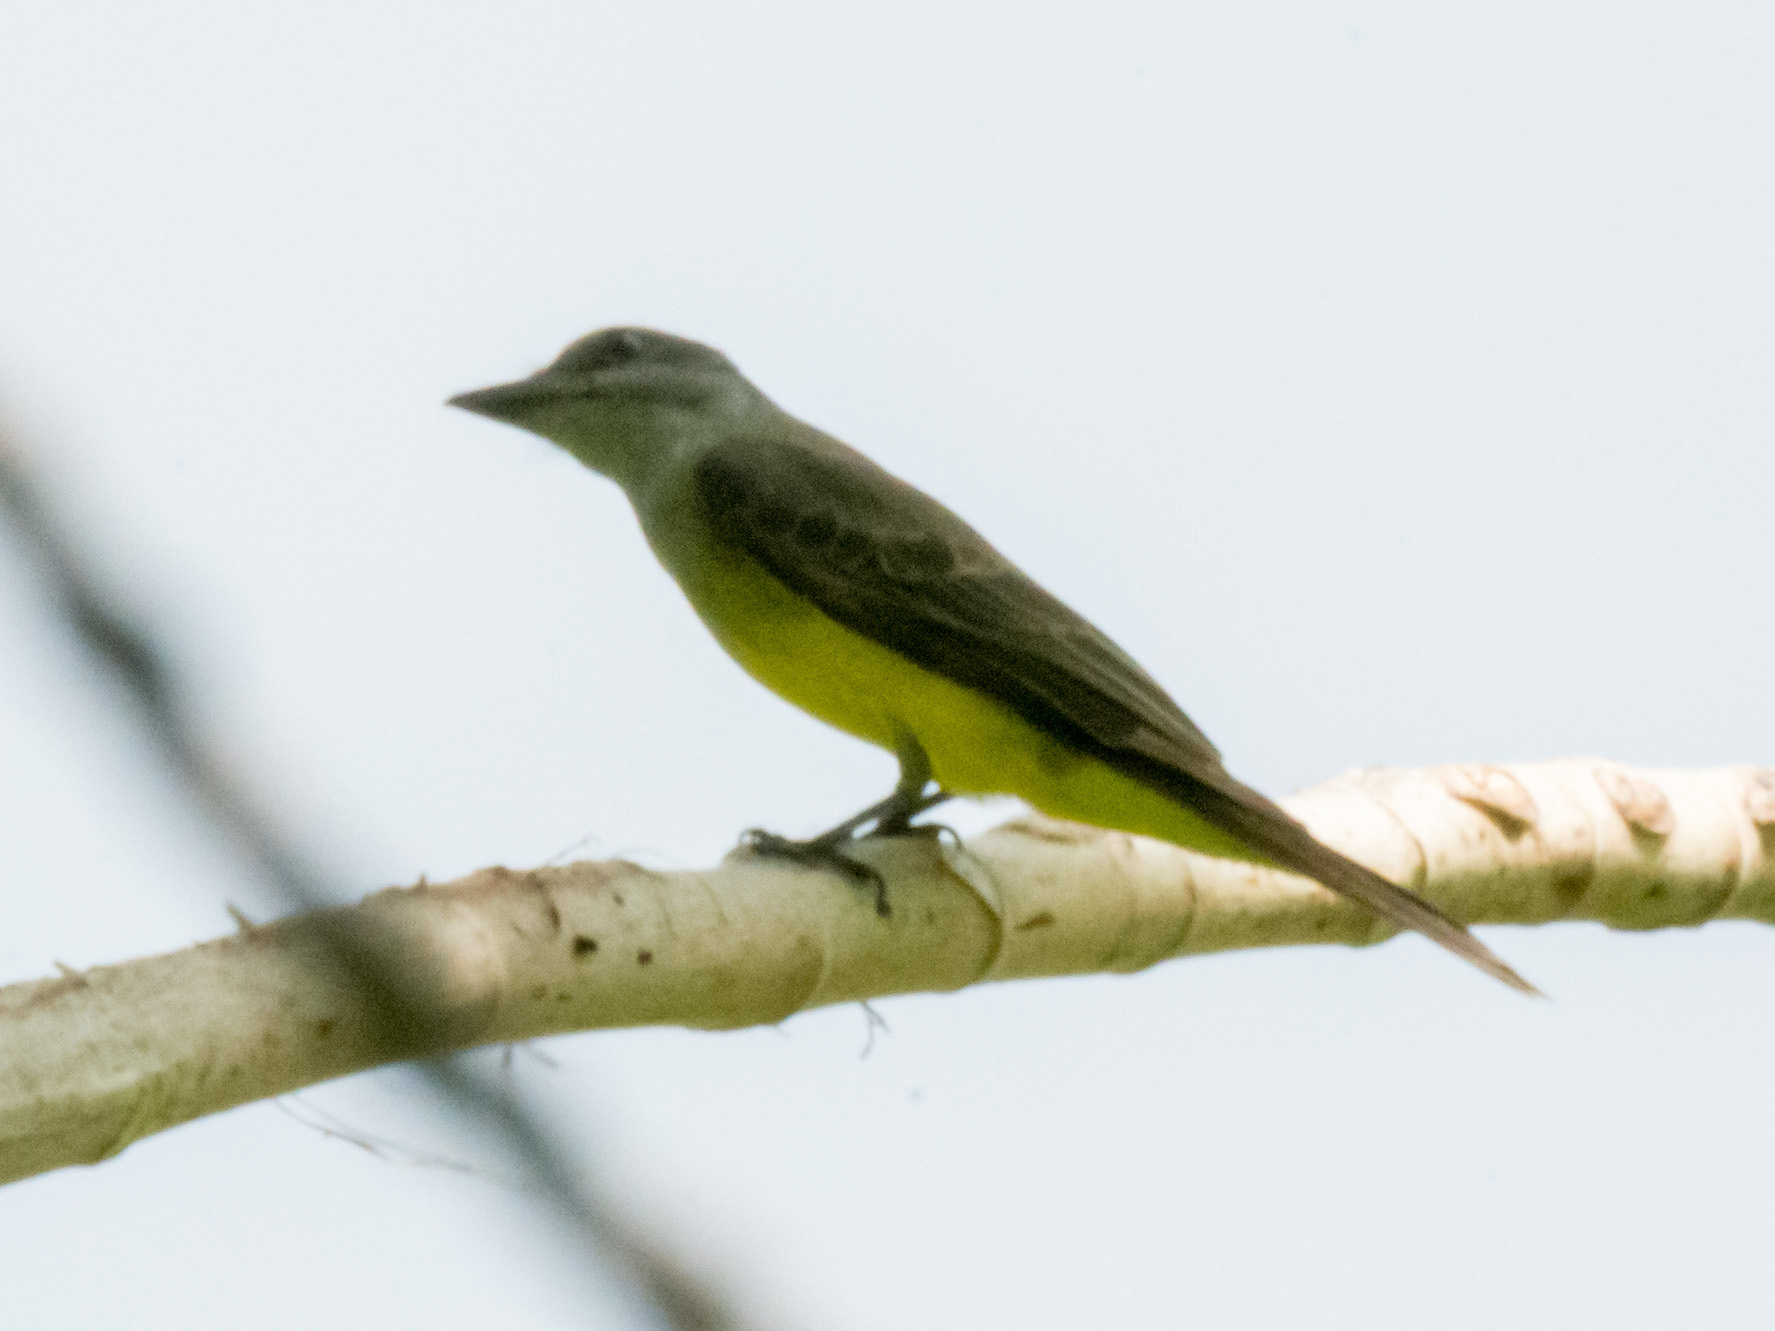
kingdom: Animalia
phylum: Chordata
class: Aves
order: Passeriformes
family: Tyrannidae
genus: Tyrannus
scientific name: Tyrannus melancholicus
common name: Tropical kingbird
